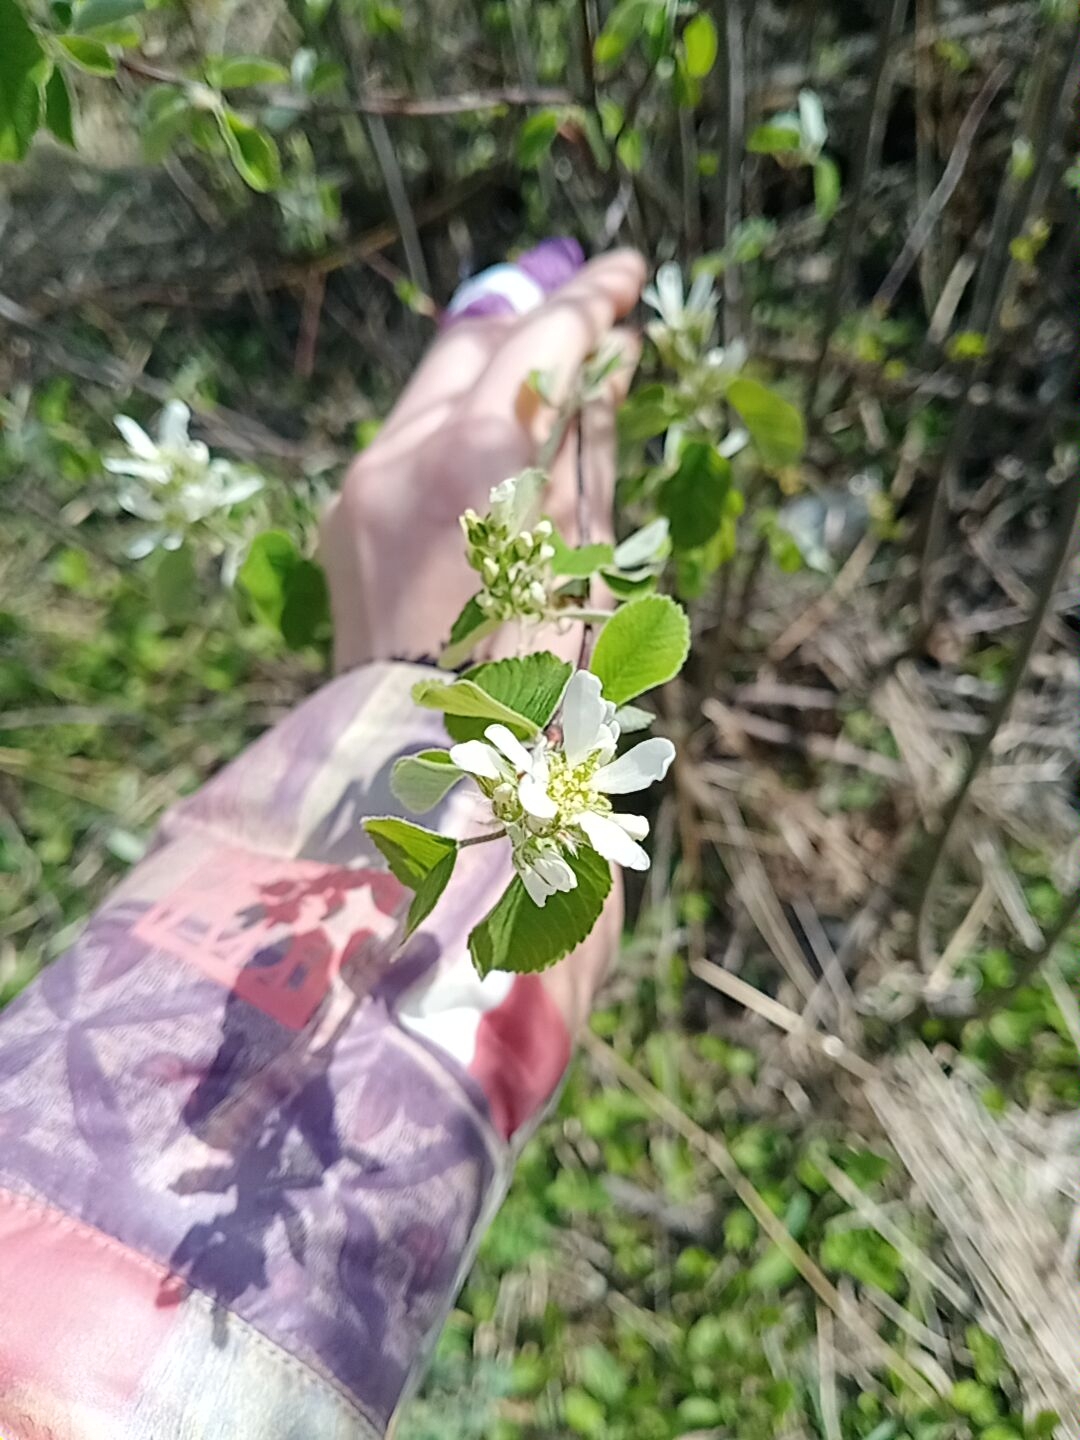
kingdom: Plantae
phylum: Tracheophyta
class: Magnoliopsida
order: Rosales
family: Rosaceae
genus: Amelanchier
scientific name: Amelanchier alnifolia
